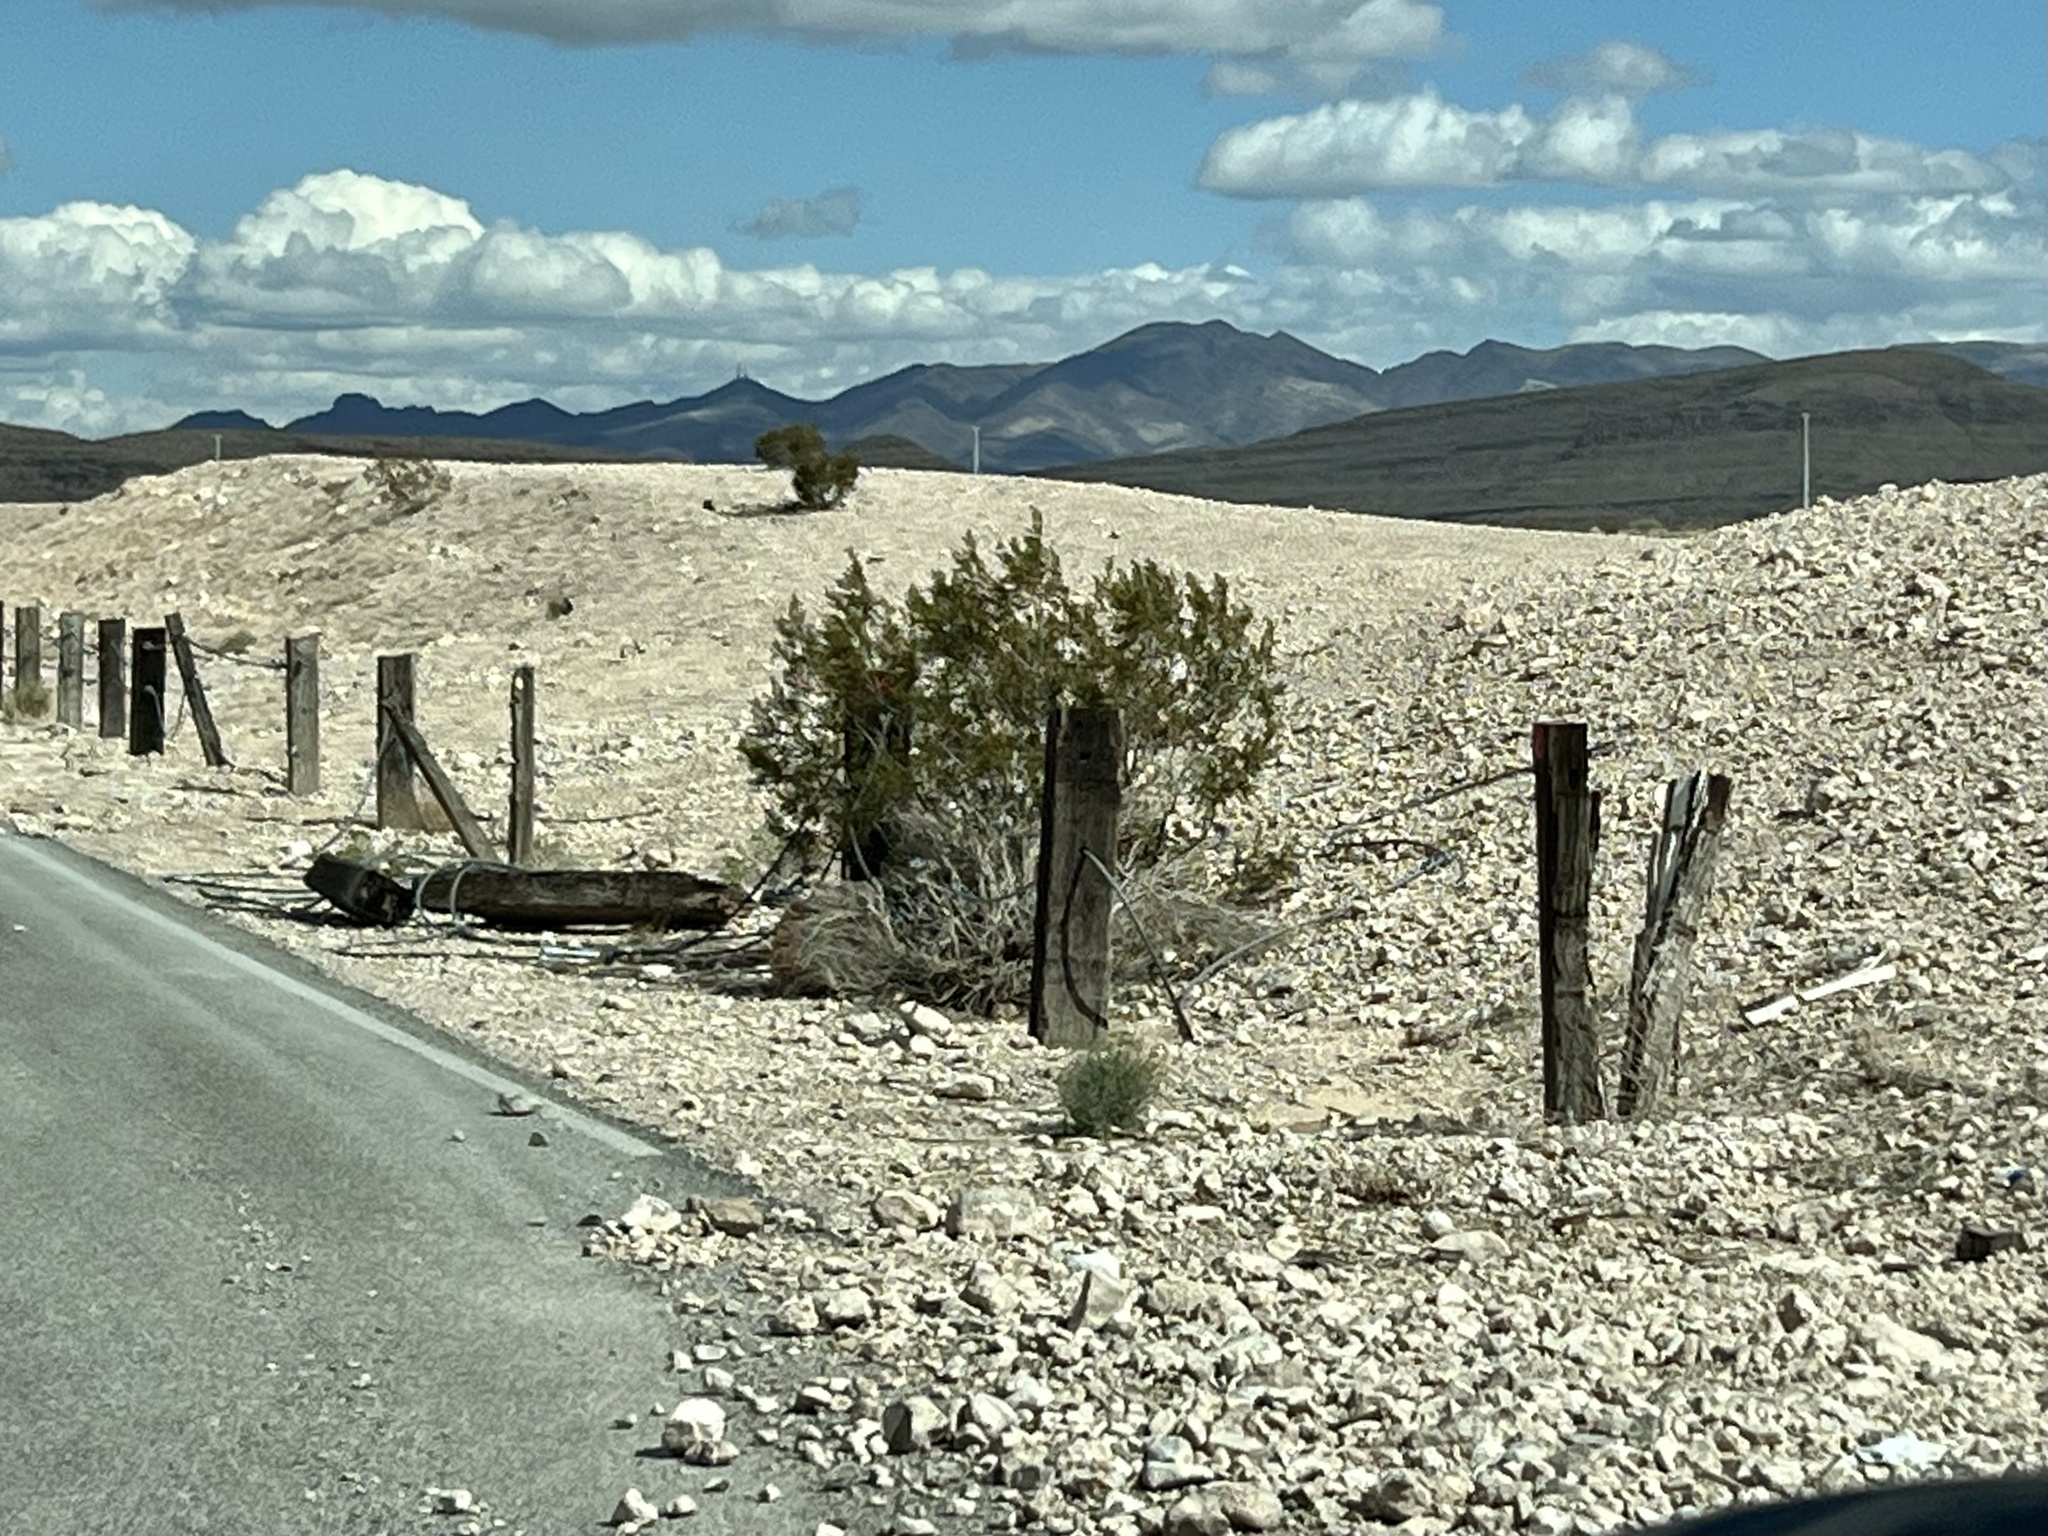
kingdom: Plantae
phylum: Tracheophyta
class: Magnoliopsida
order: Zygophyllales
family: Zygophyllaceae
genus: Larrea
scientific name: Larrea tridentata
